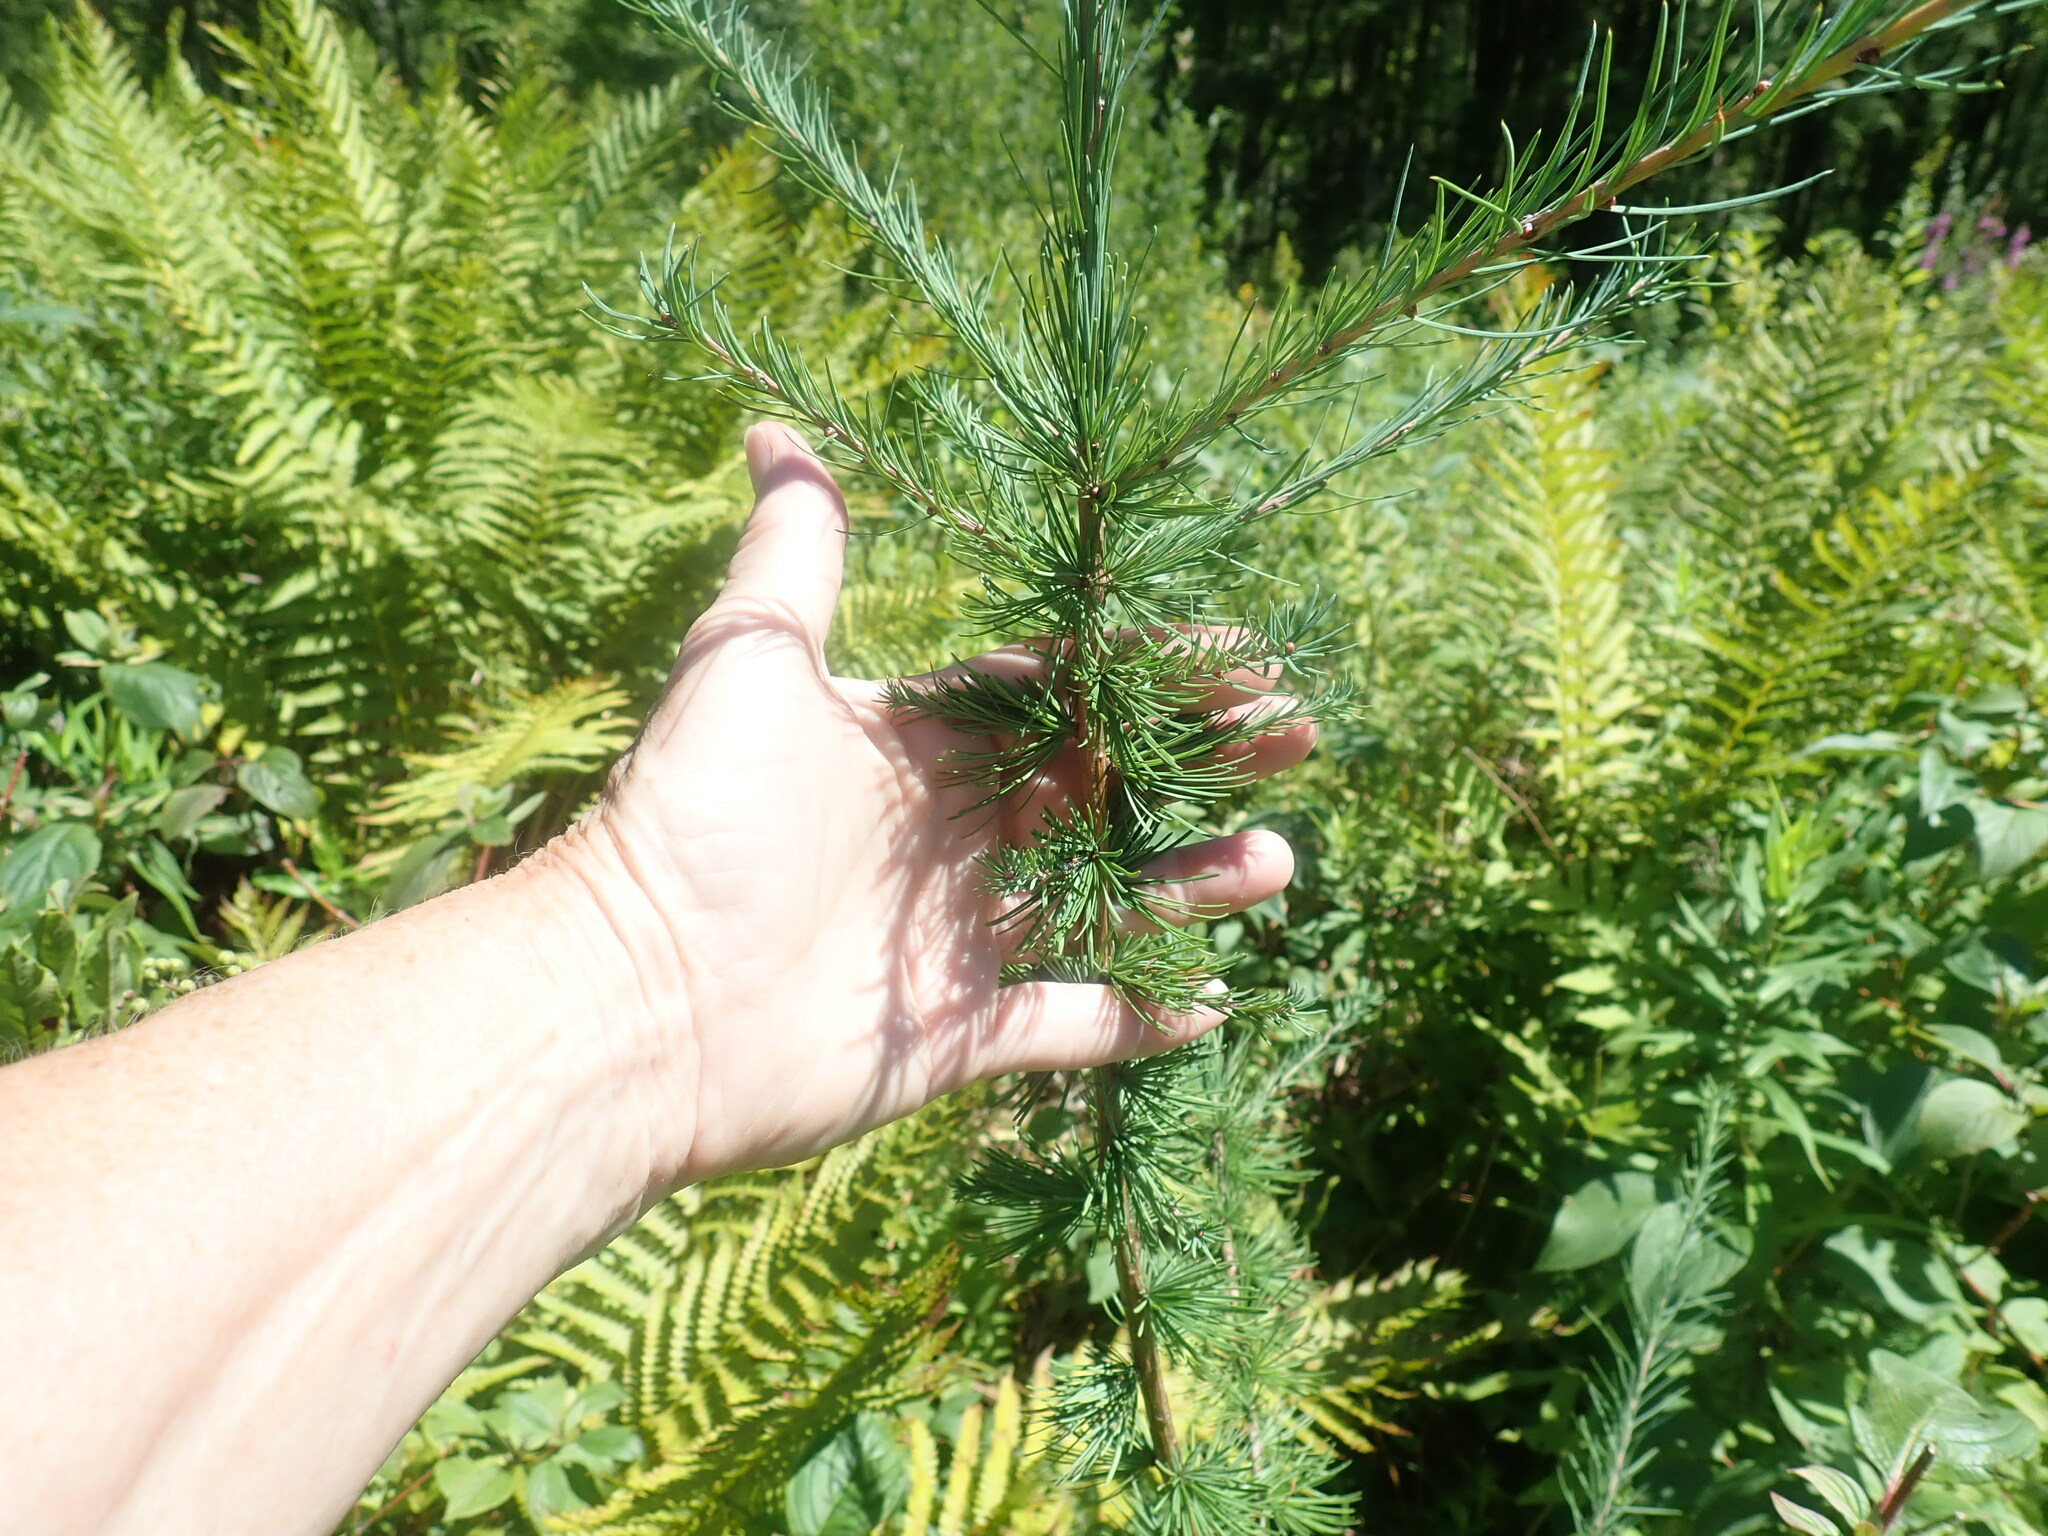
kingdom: Plantae
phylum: Tracheophyta
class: Pinopsida
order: Pinales
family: Pinaceae
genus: Larix
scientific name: Larix laricina
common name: American larch
